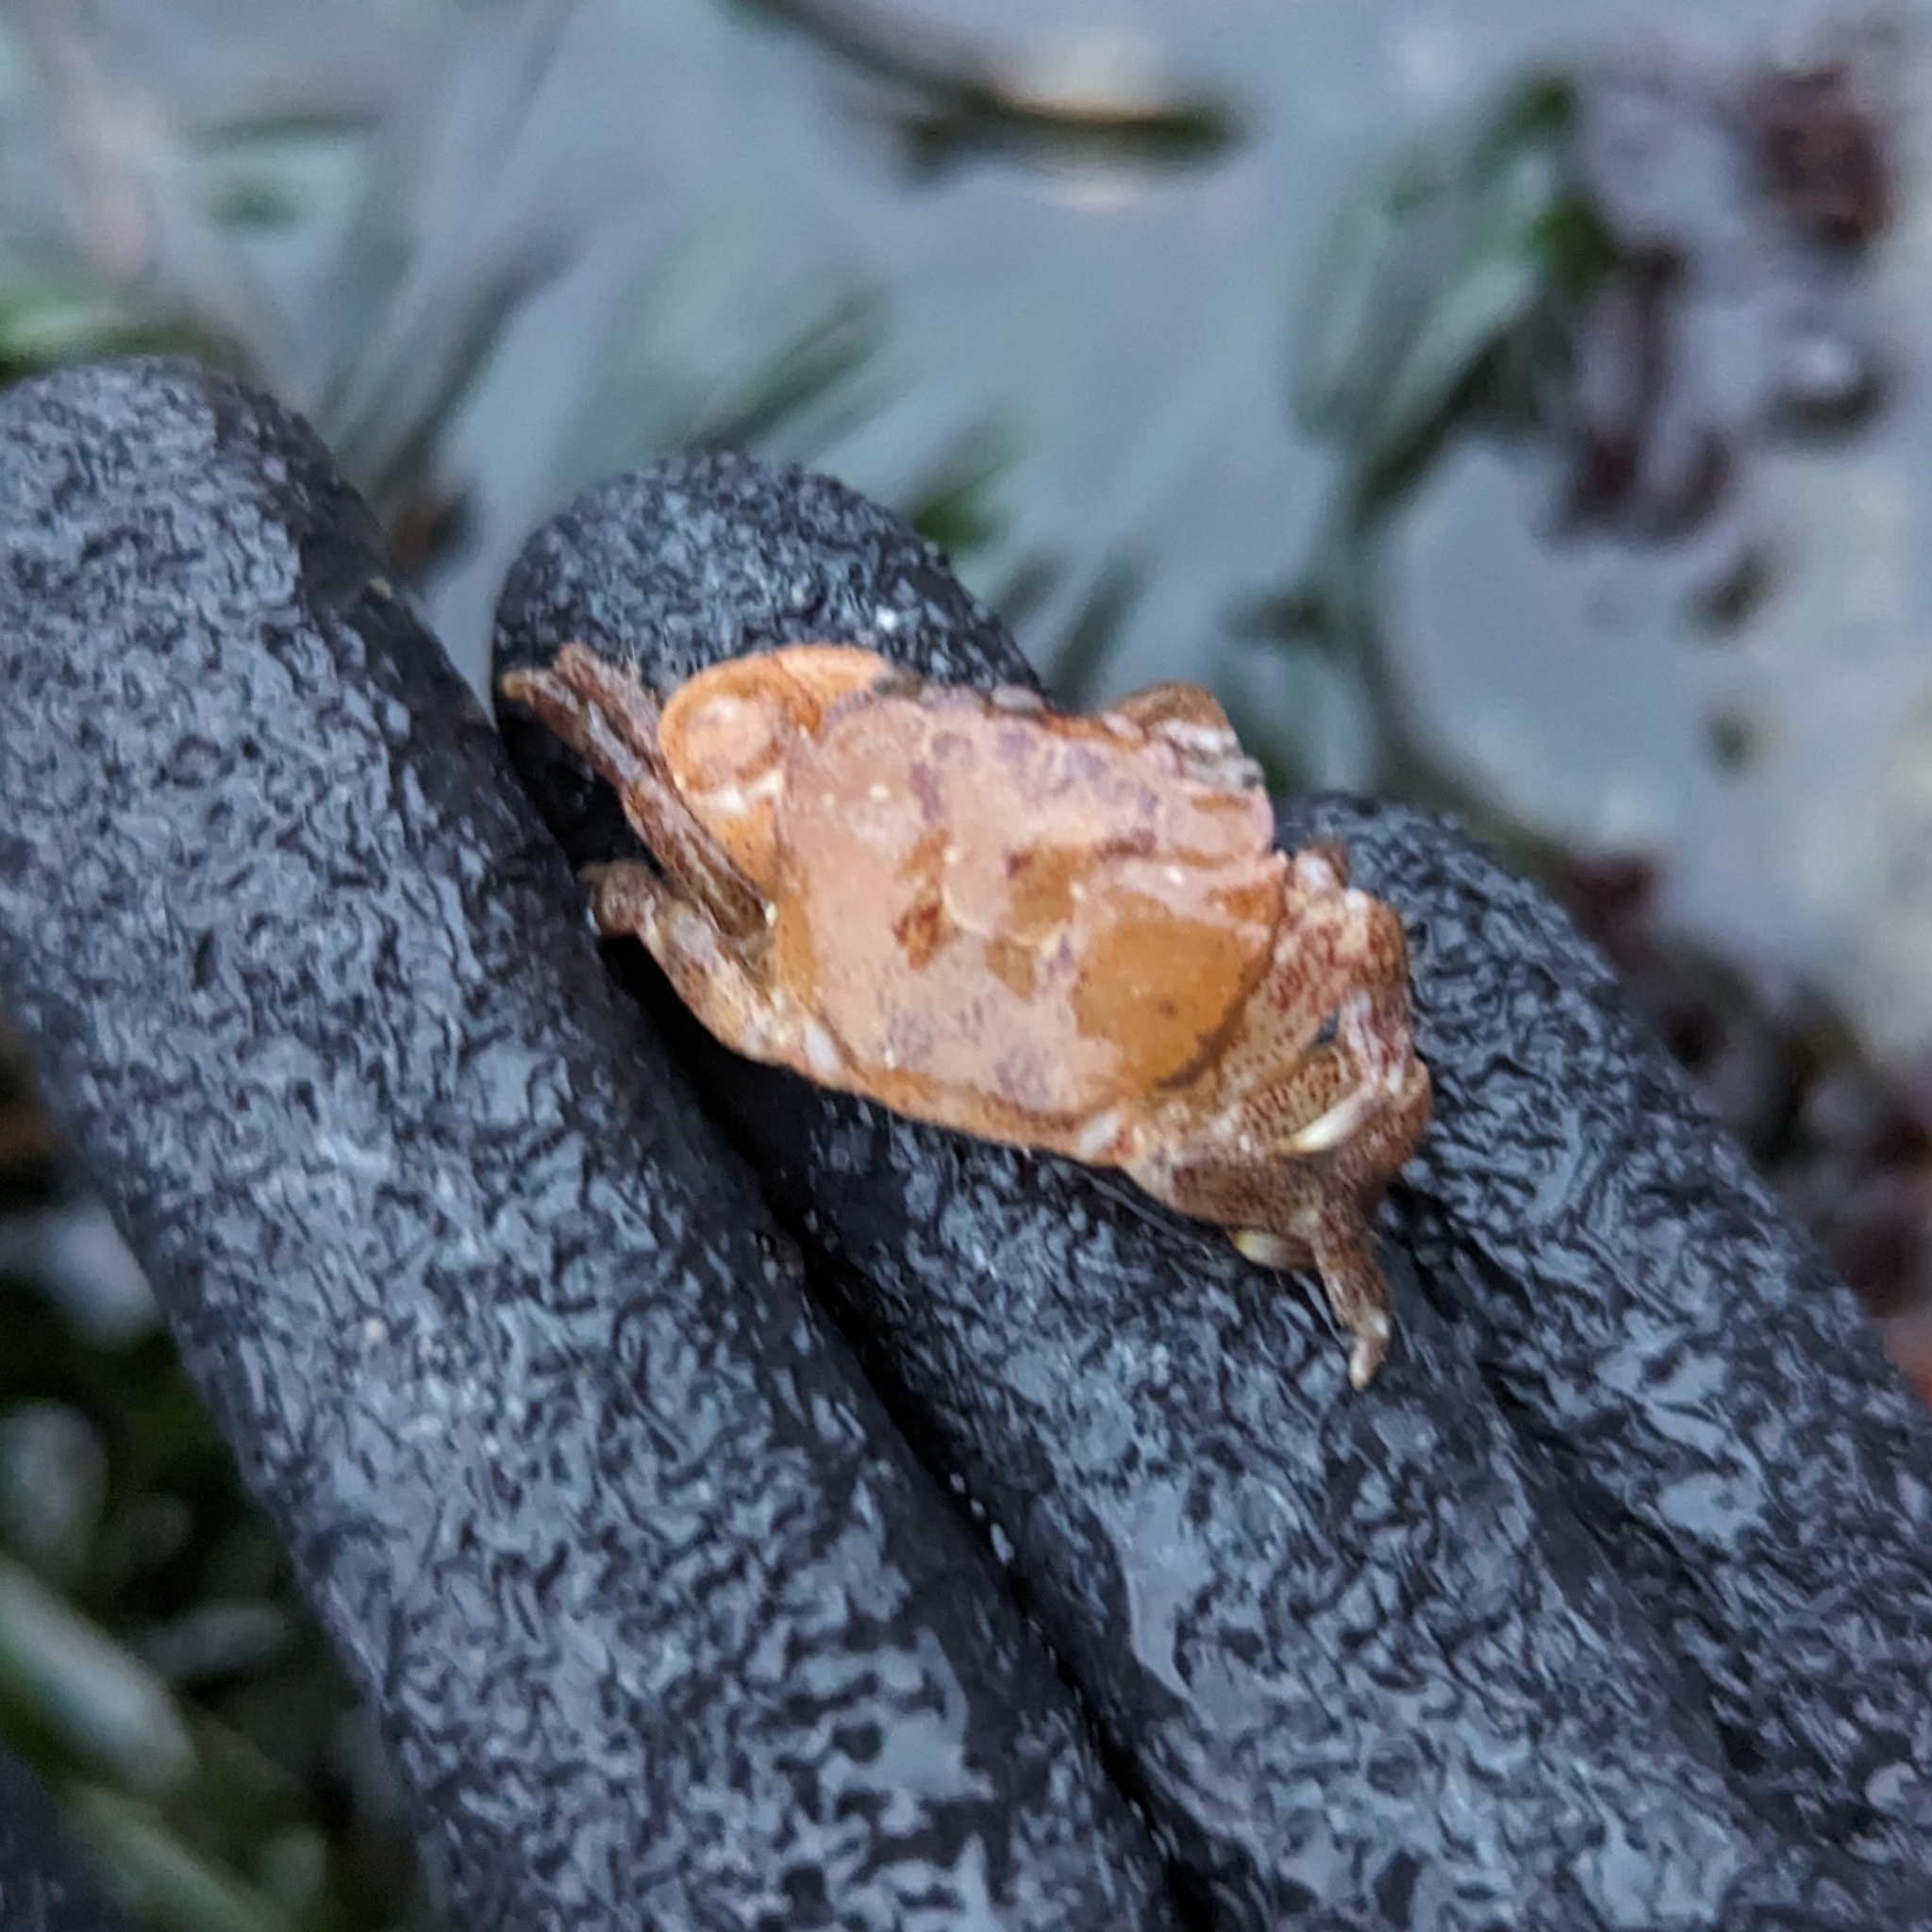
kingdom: Animalia
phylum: Arthropoda
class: Malacostraca
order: Decapoda
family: Varunidae
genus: Hemigrapsus
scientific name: Hemigrapsus oregonensis
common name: Yellow shore crab
